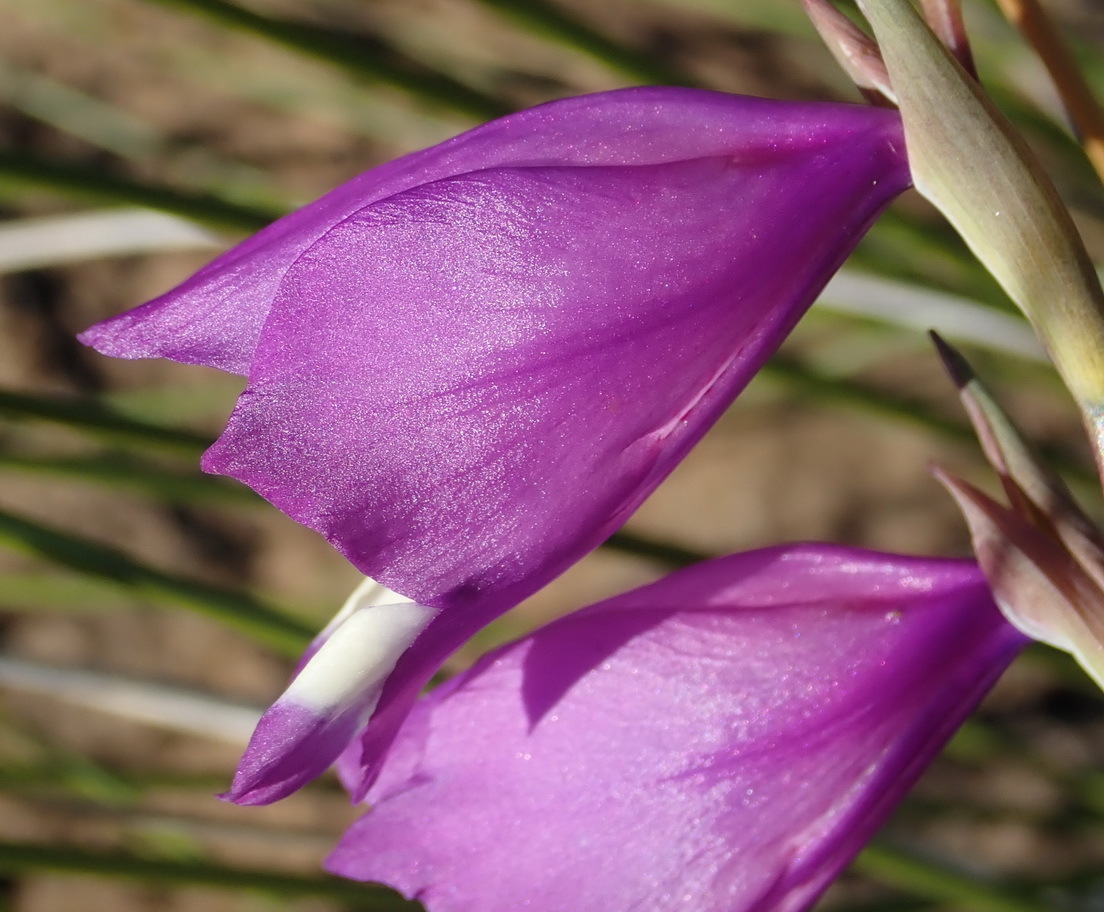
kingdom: Plantae
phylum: Tracheophyta
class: Liliopsida
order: Asparagales
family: Iridaceae
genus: Gladiolus
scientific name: Gladiolus rogersii
